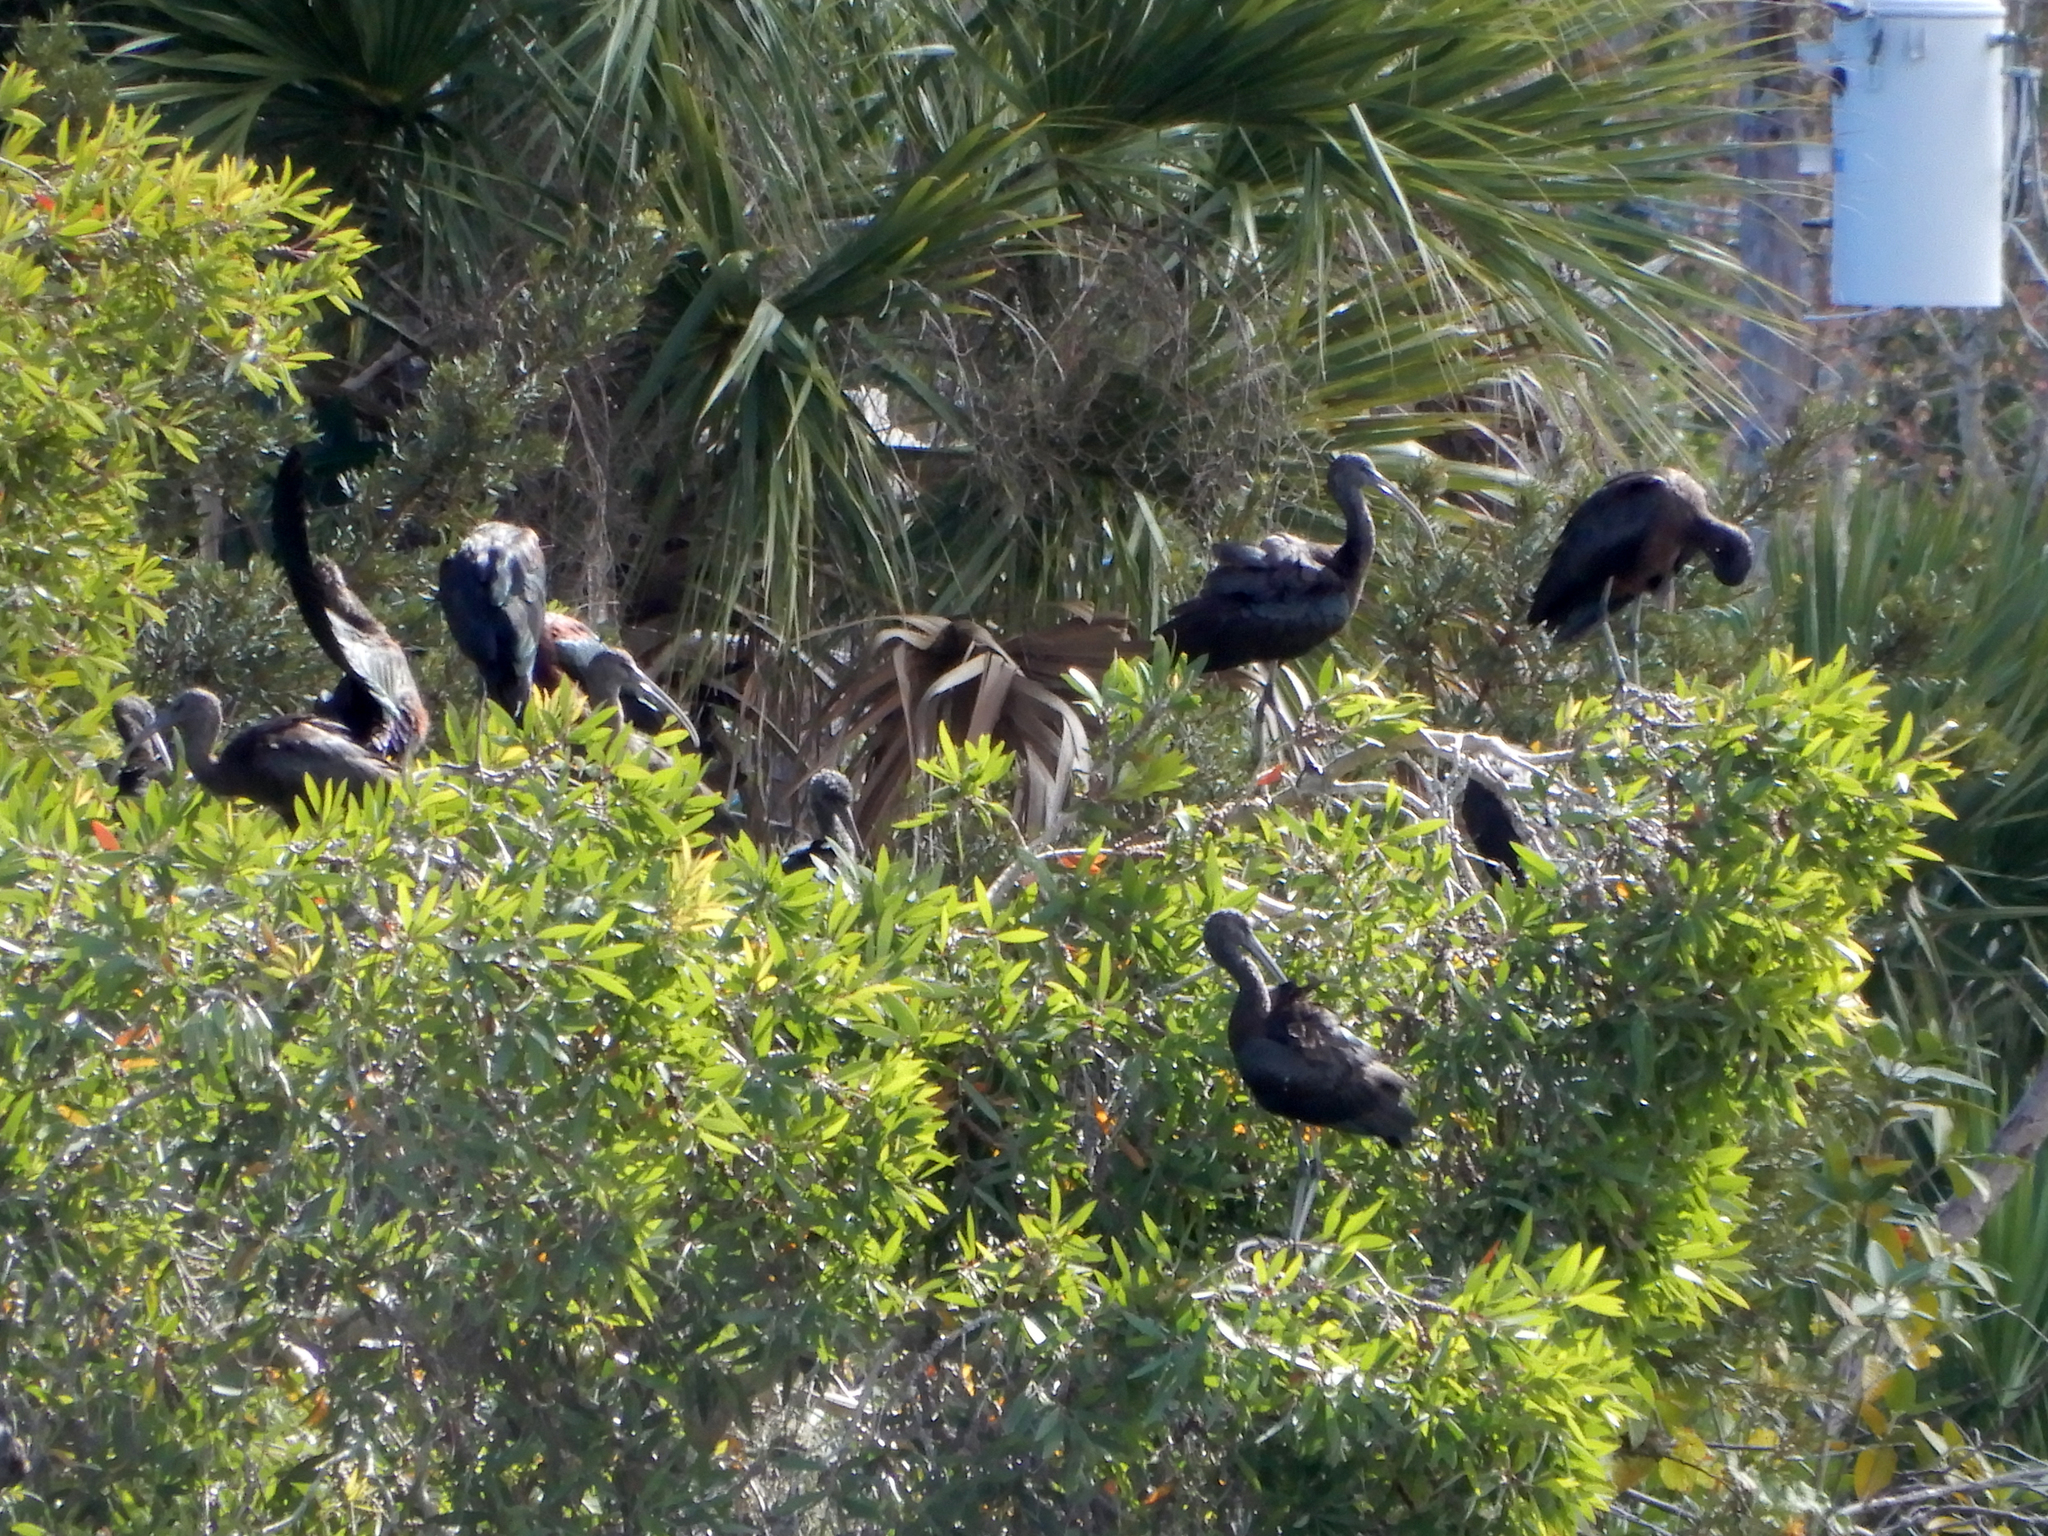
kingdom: Animalia
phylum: Chordata
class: Aves
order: Pelecaniformes
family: Threskiornithidae
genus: Plegadis
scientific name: Plegadis falcinellus
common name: Glossy ibis
